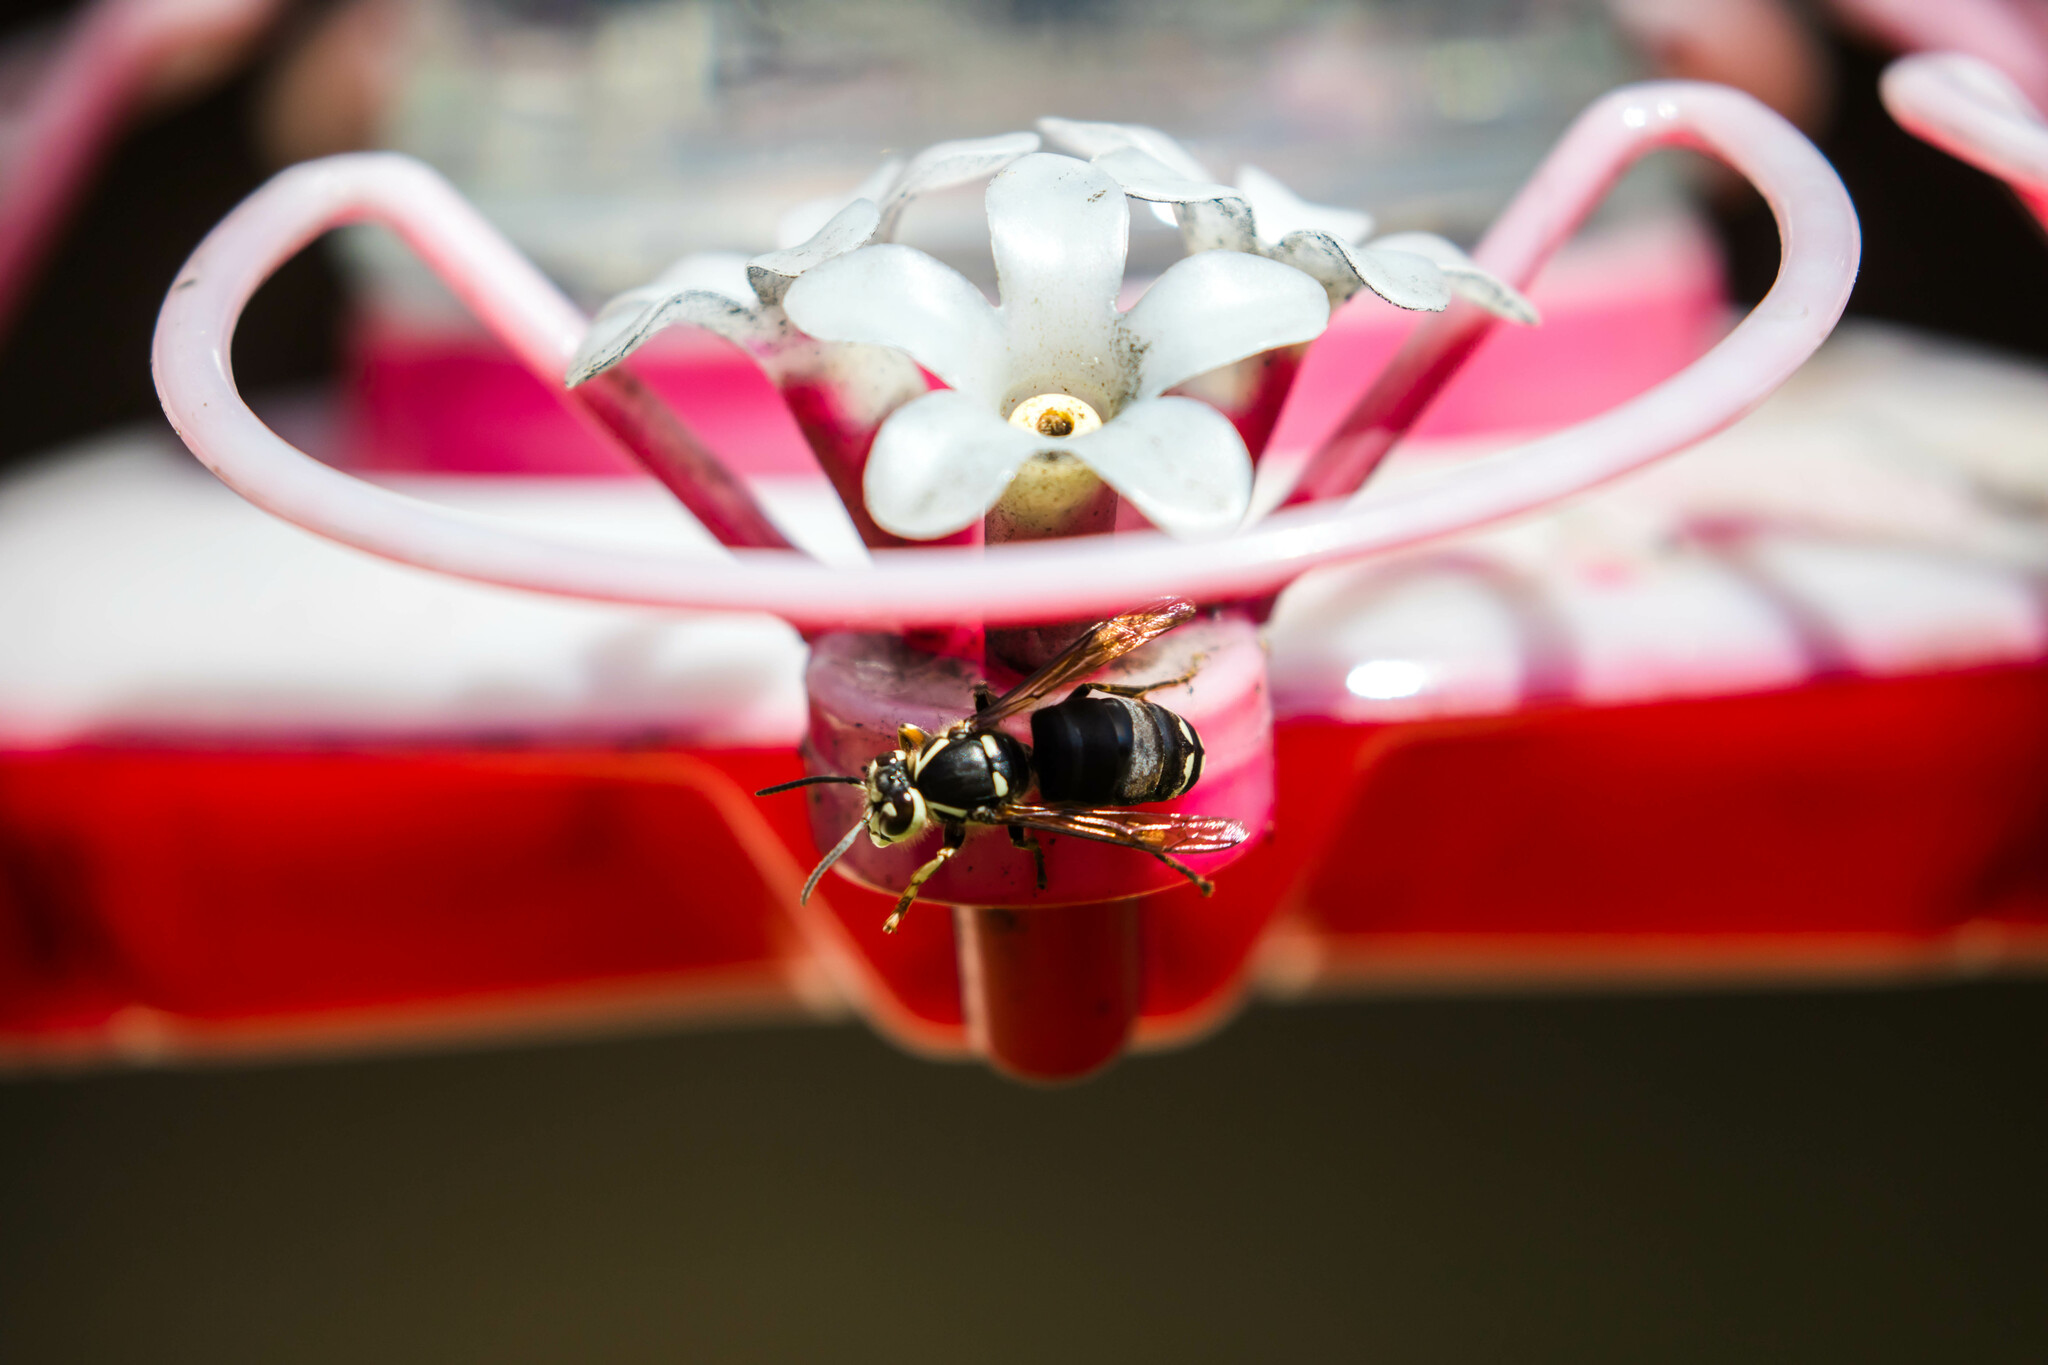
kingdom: Animalia
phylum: Arthropoda
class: Insecta
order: Hymenoptera
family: Vespidae
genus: Dolichovespula
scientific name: Dolichovespula maculata
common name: Bald-faced hornet
